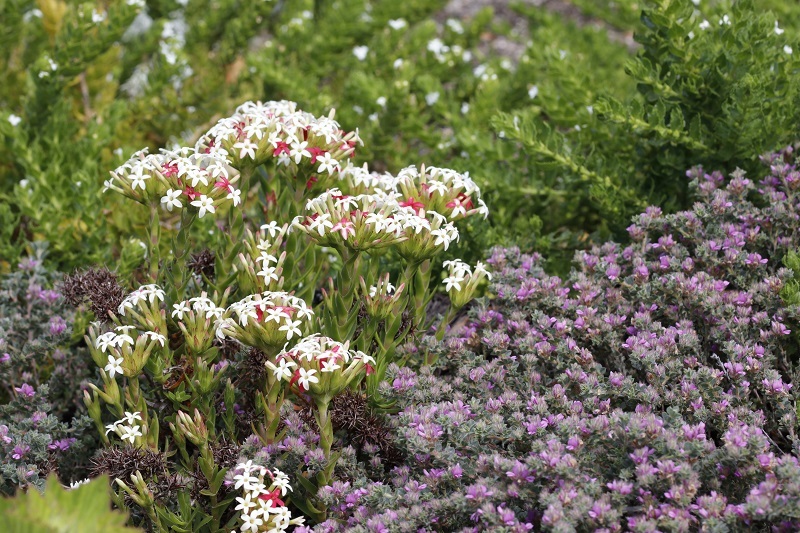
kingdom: Plantae
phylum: Tracheophyta
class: Magnoliopsida
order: Saxifragales
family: Crassulaceae
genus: Crassula
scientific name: Crassula fascicularis
